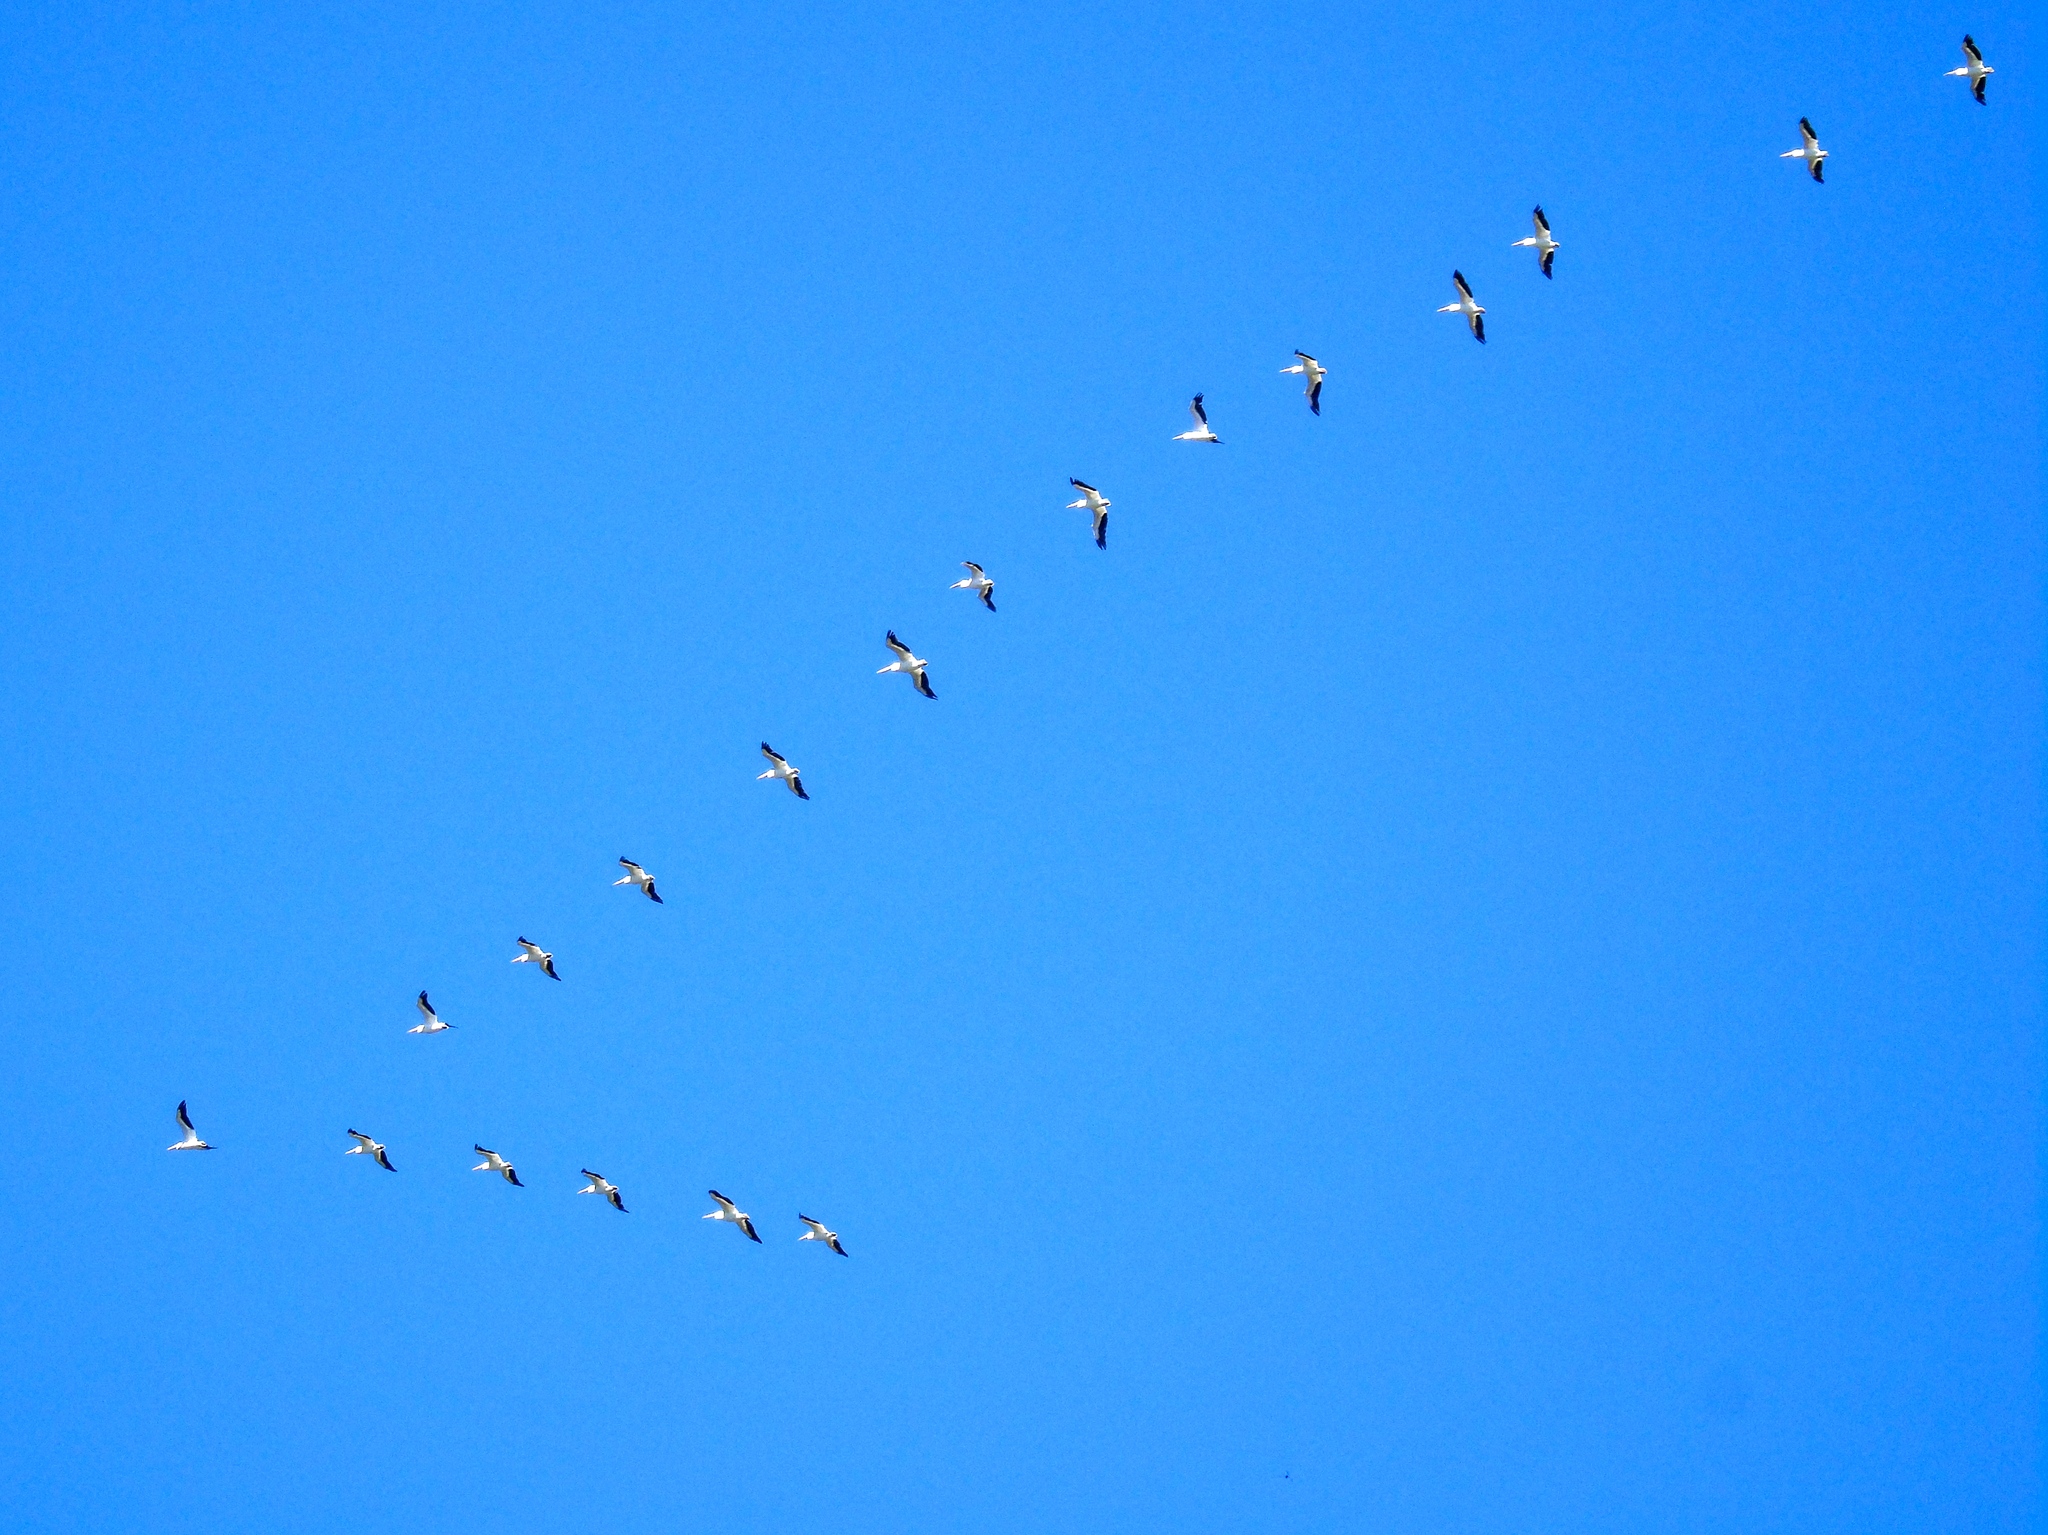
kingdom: Animalia
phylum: Chordata
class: Aves
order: Pelecaniformes
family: Pelecanidae
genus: Pelecanus
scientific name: Pelecanus erythrorhynchos
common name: American white pelican
